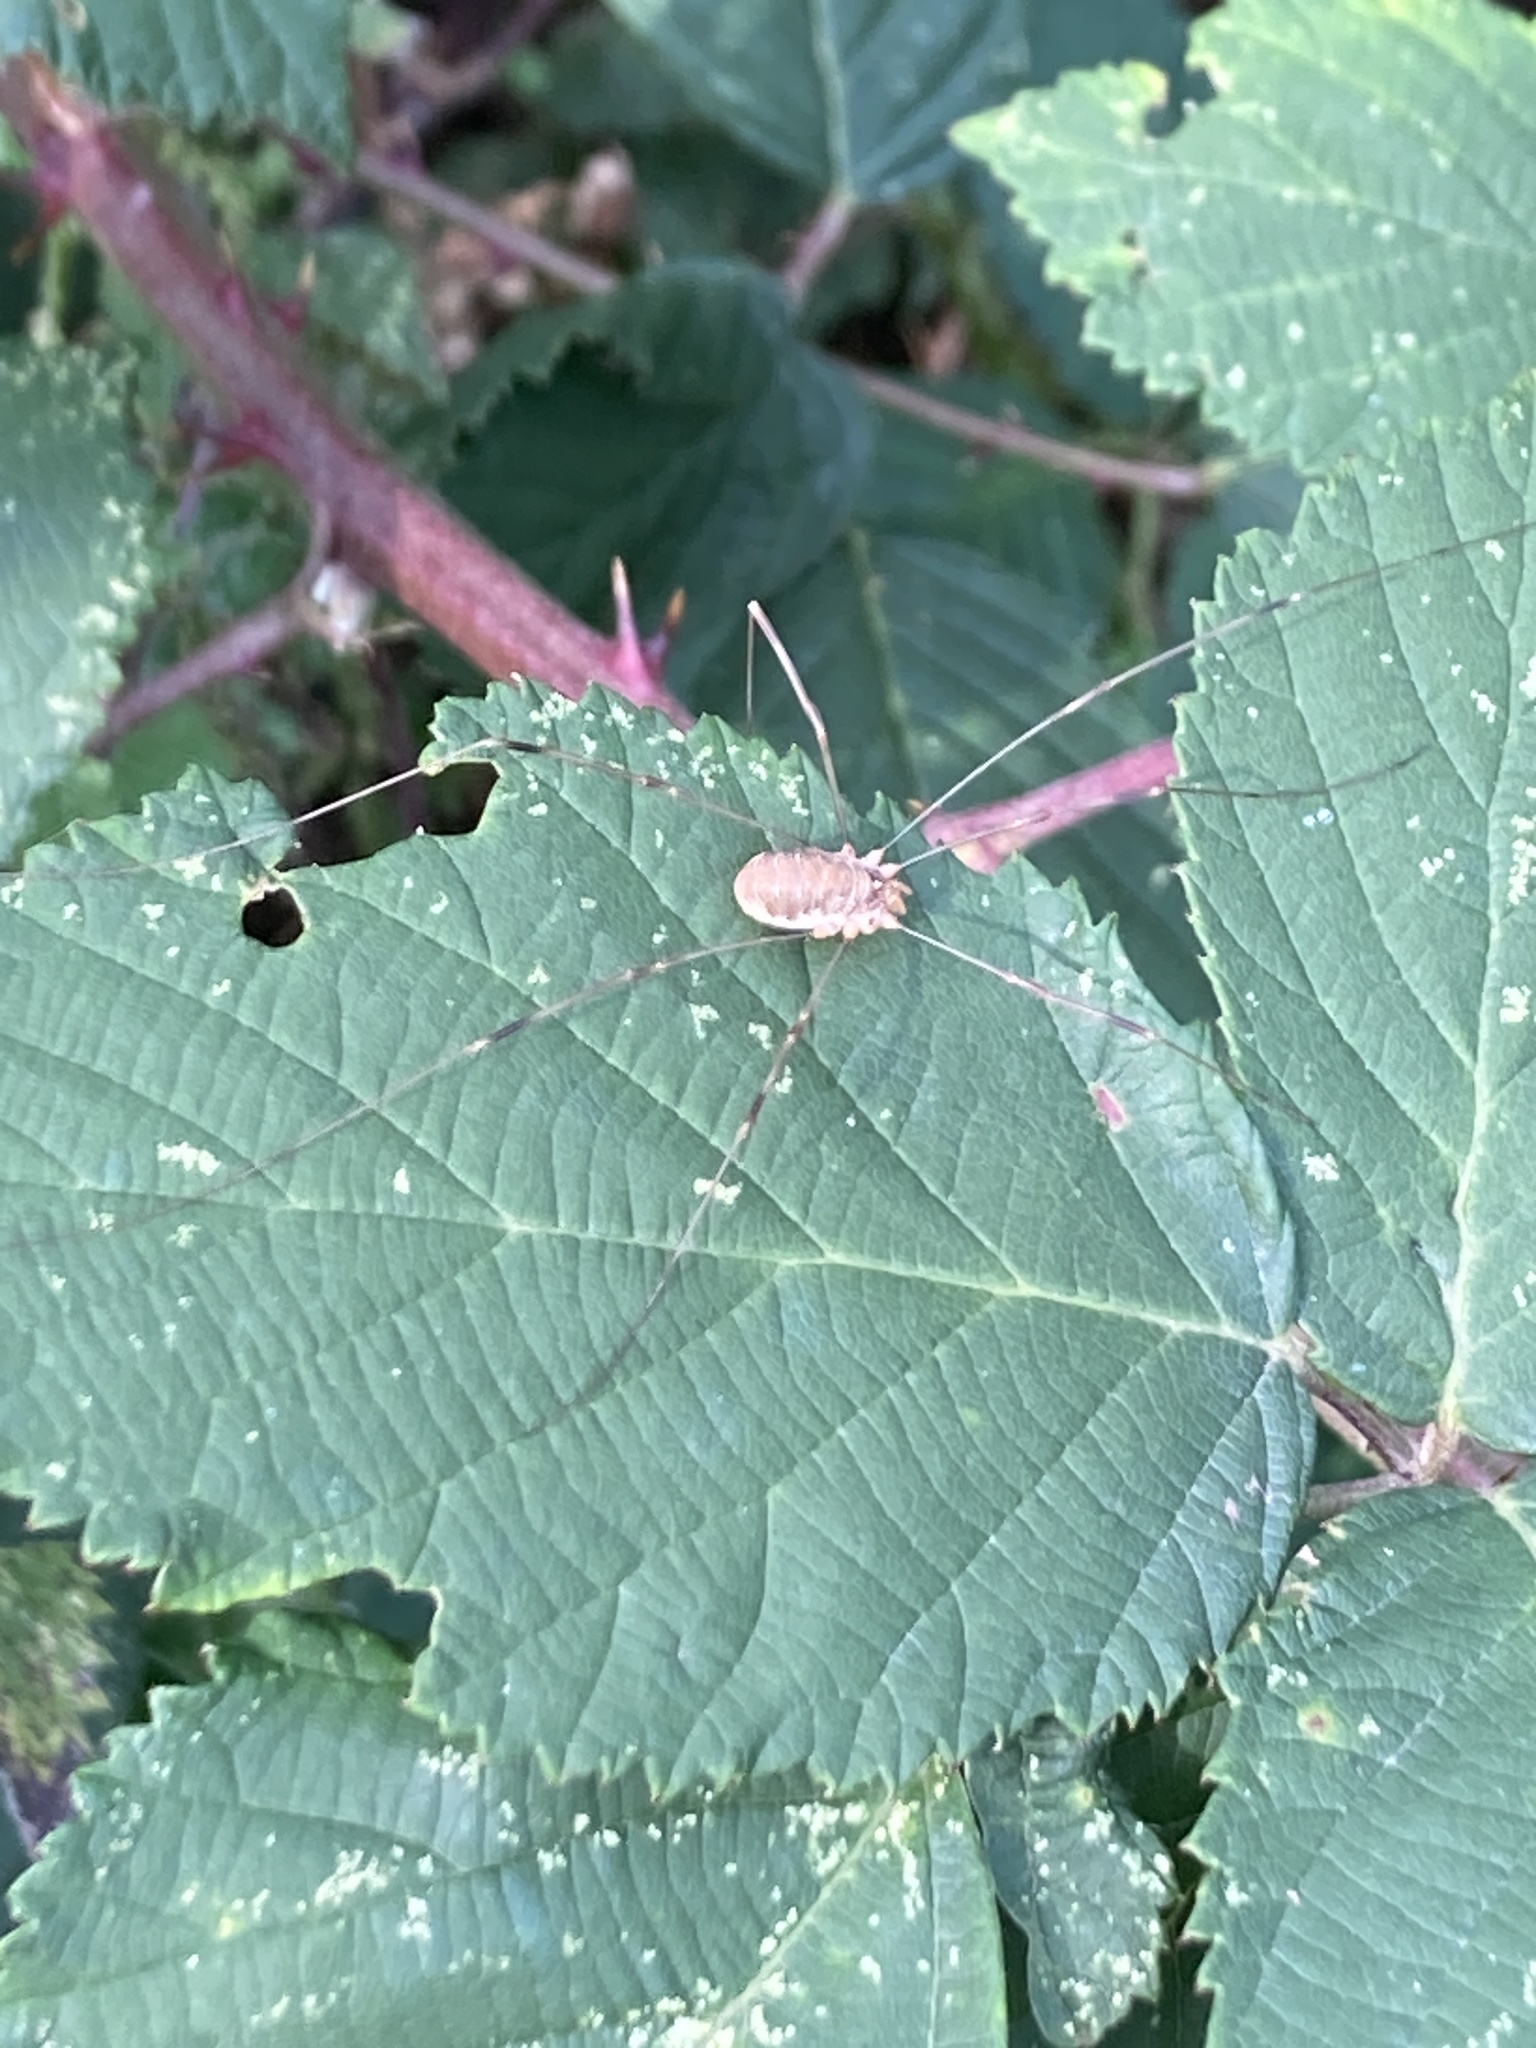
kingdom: Animalia
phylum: Arthropoda
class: Arachnida
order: Opiliones
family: Phalangiidae
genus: Opilio
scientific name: Opilio canestrinii
